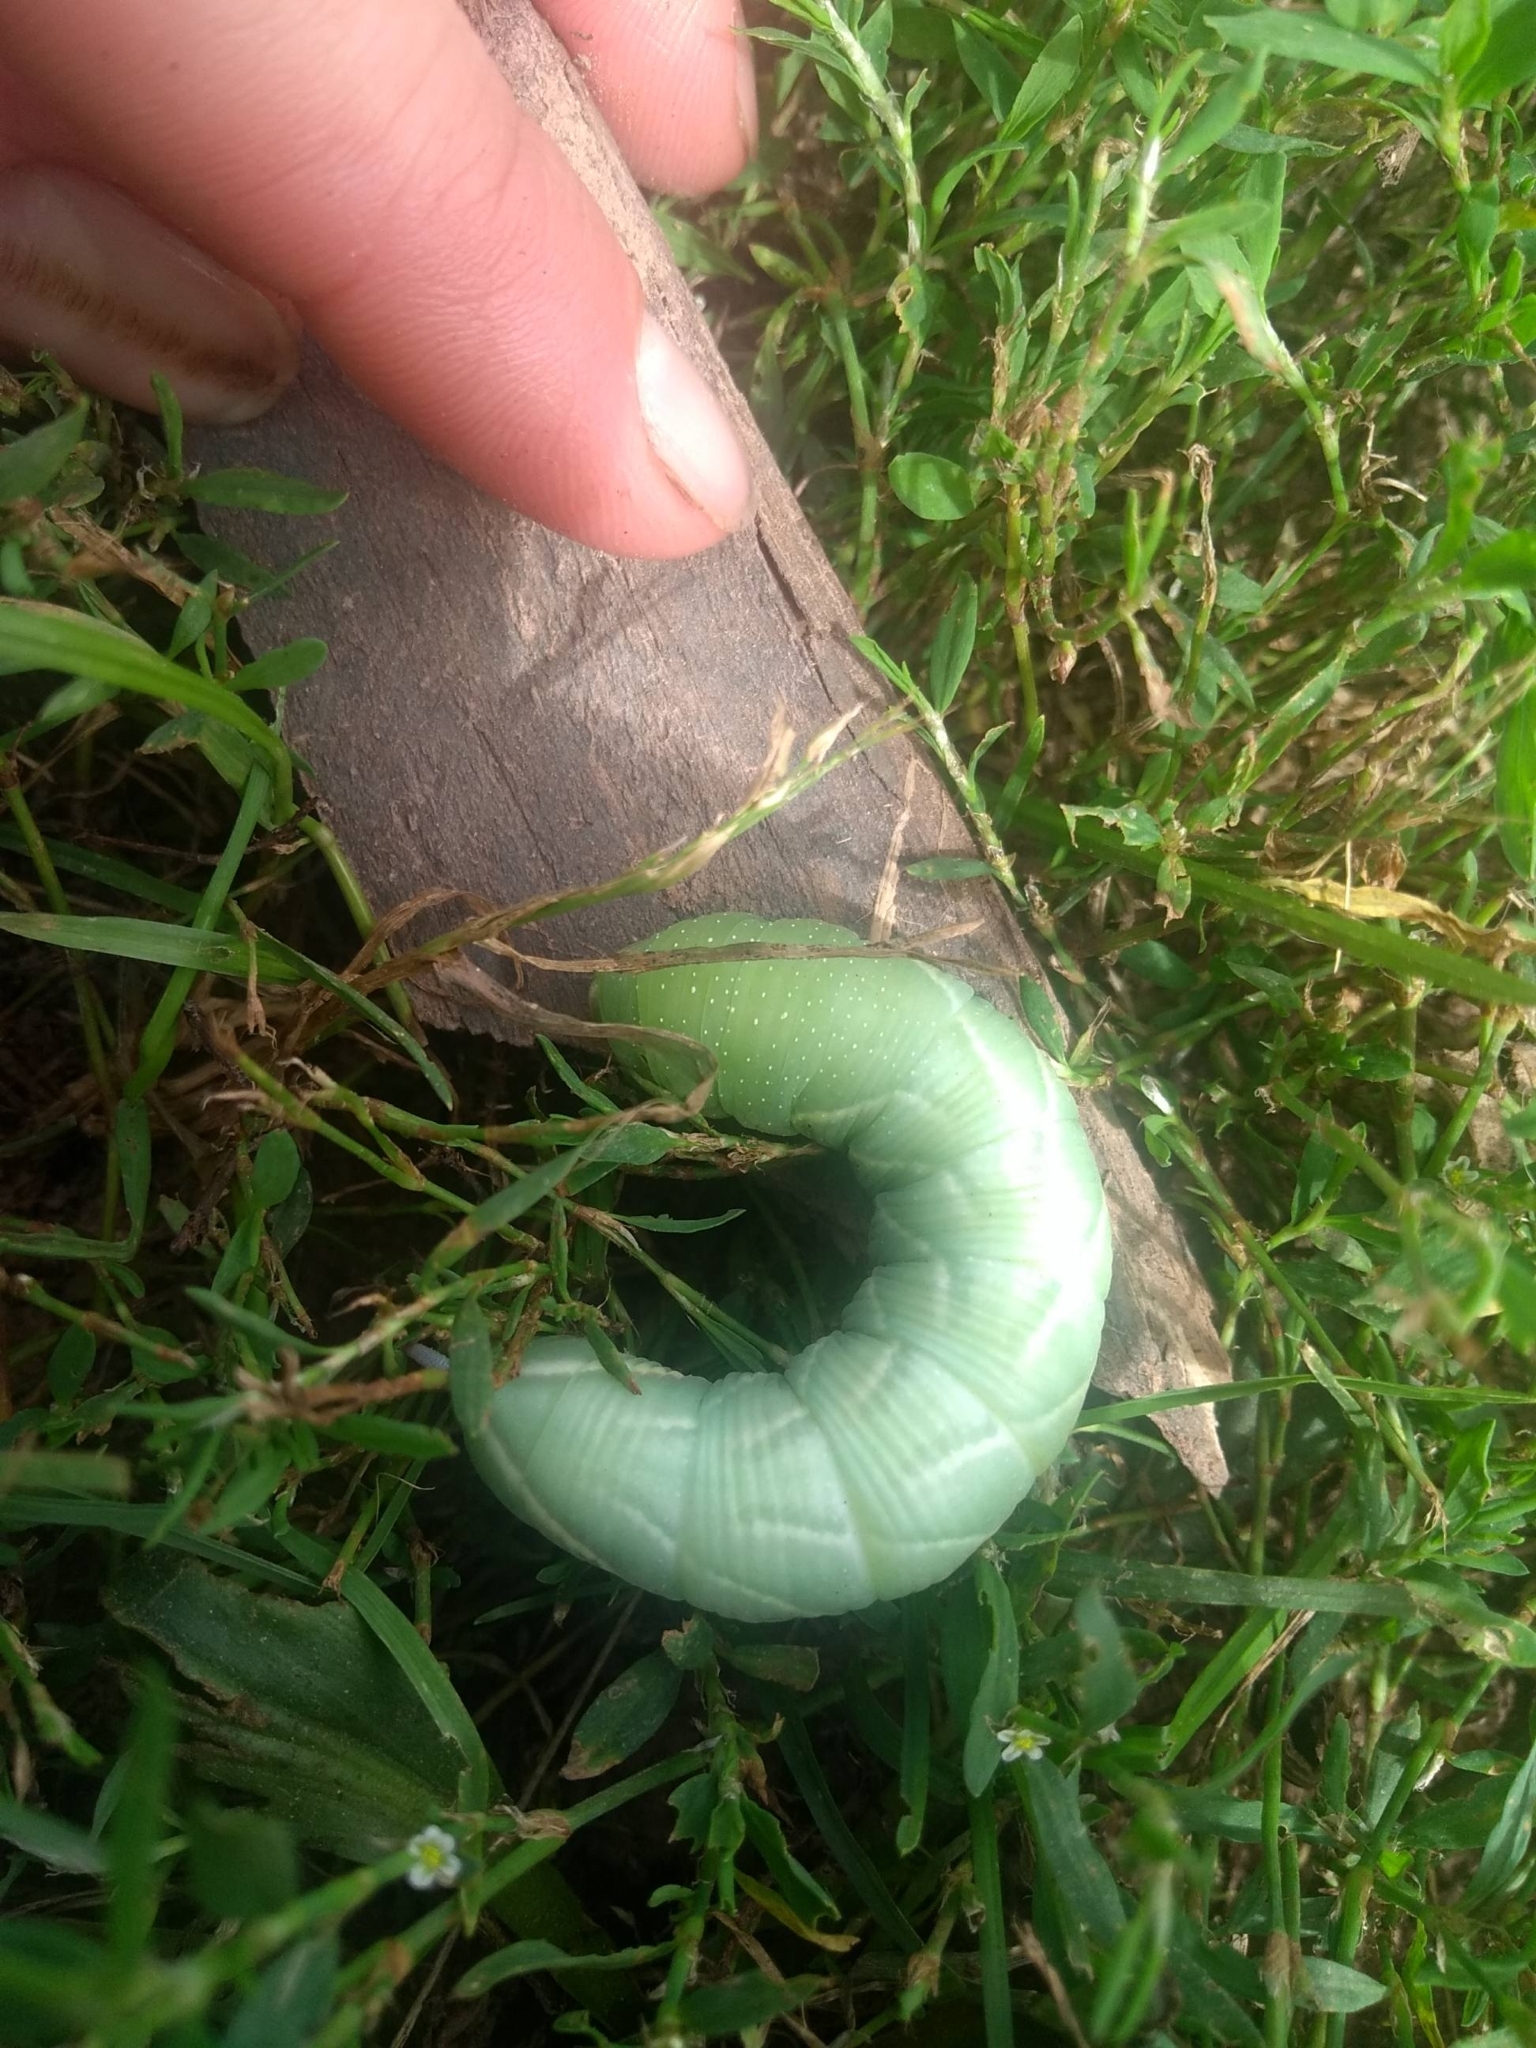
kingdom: Animalia
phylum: Arthropoda
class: Insecta
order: Lepidoptera
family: Sphingidae
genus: Sphinx
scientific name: Sphinx chersis
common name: Great ash sphinx
